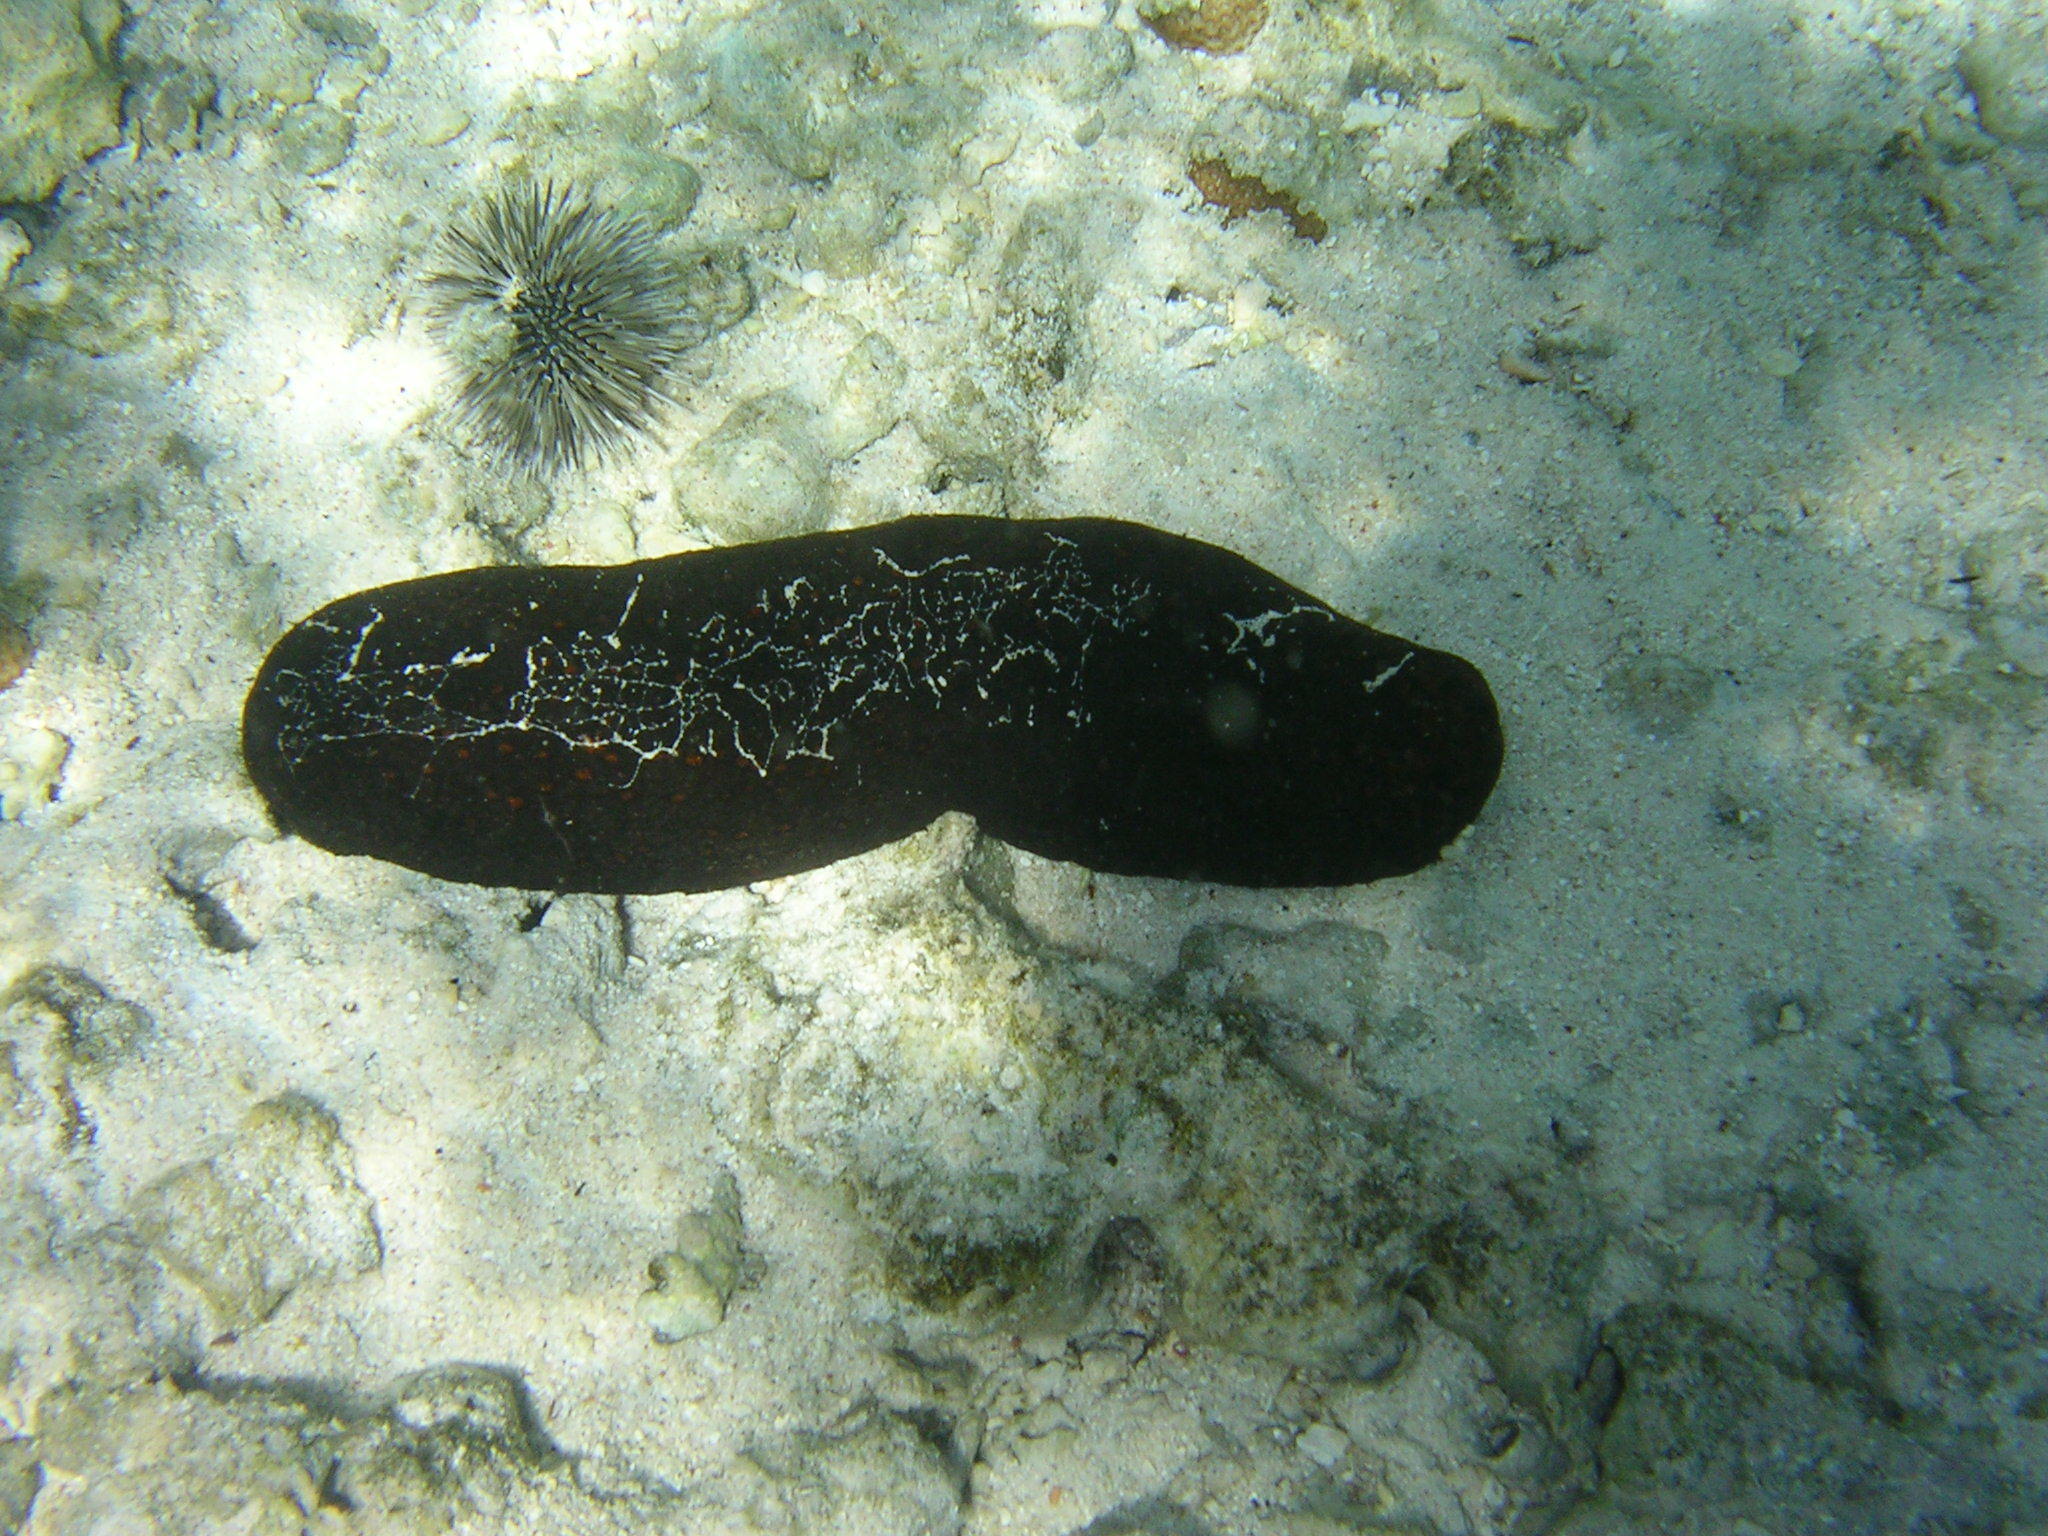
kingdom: Animalia
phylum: Echinodermata
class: Holothuroidea
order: Holothuriida
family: Holothuriidae
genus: Bohadschia
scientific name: Bohadschia argus
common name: Leopardfish
